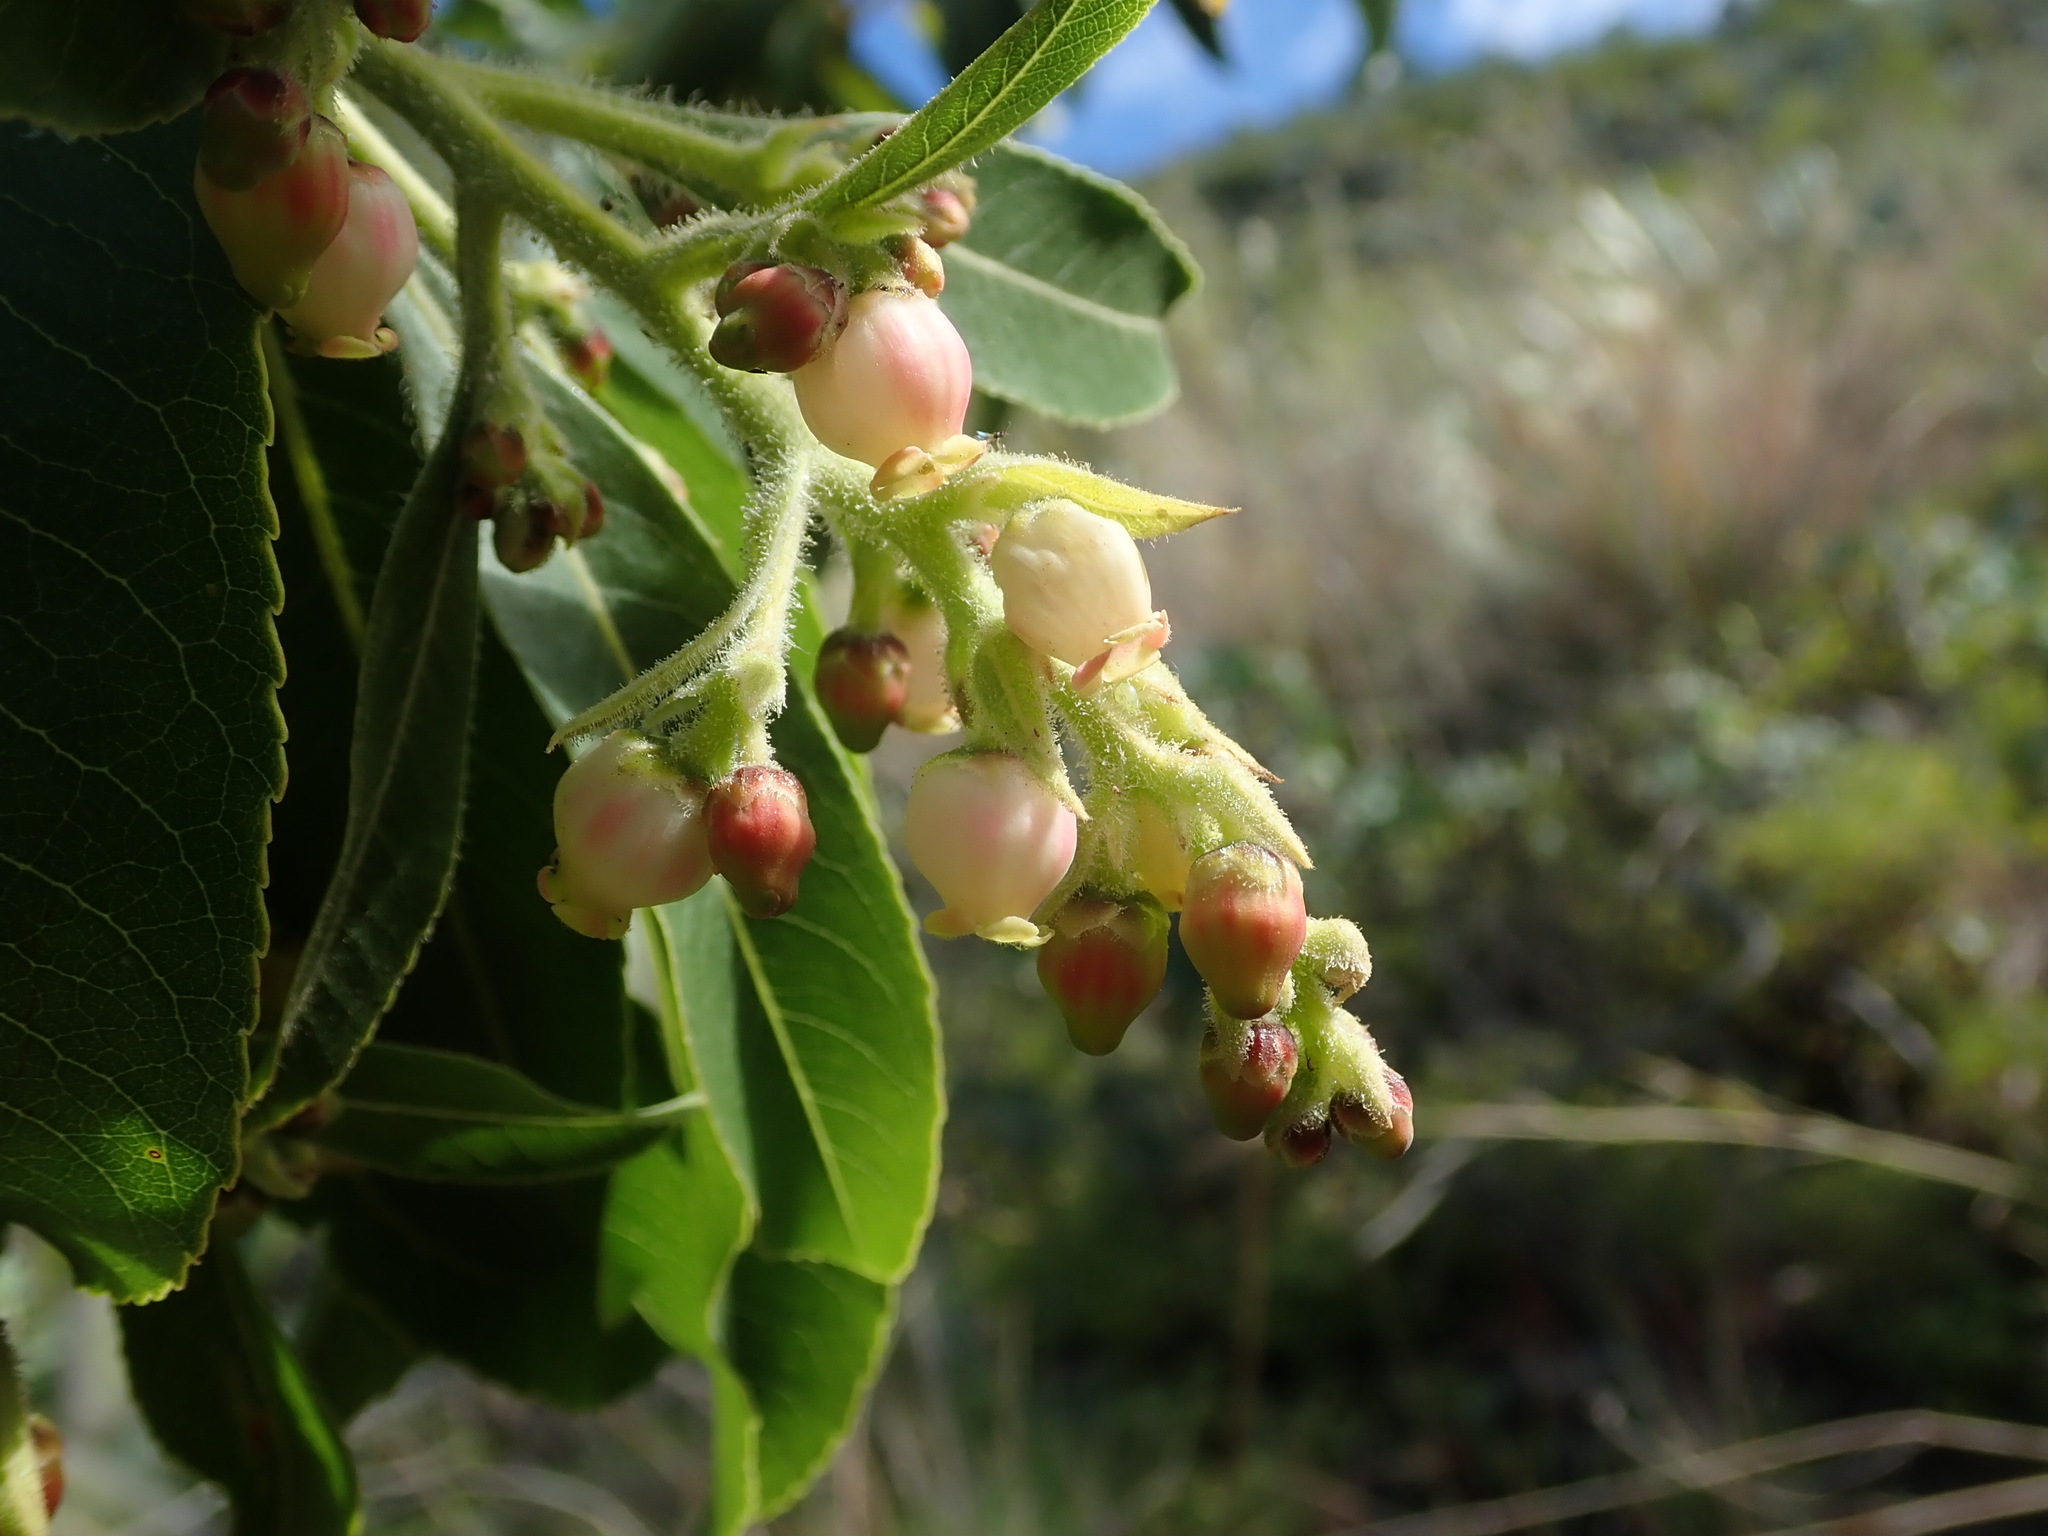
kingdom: Plantae
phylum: Tracheophyta
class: Magnoliopsida
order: Ericales
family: Ericaceae
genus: Arbutus
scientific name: Arbutus canariensis
